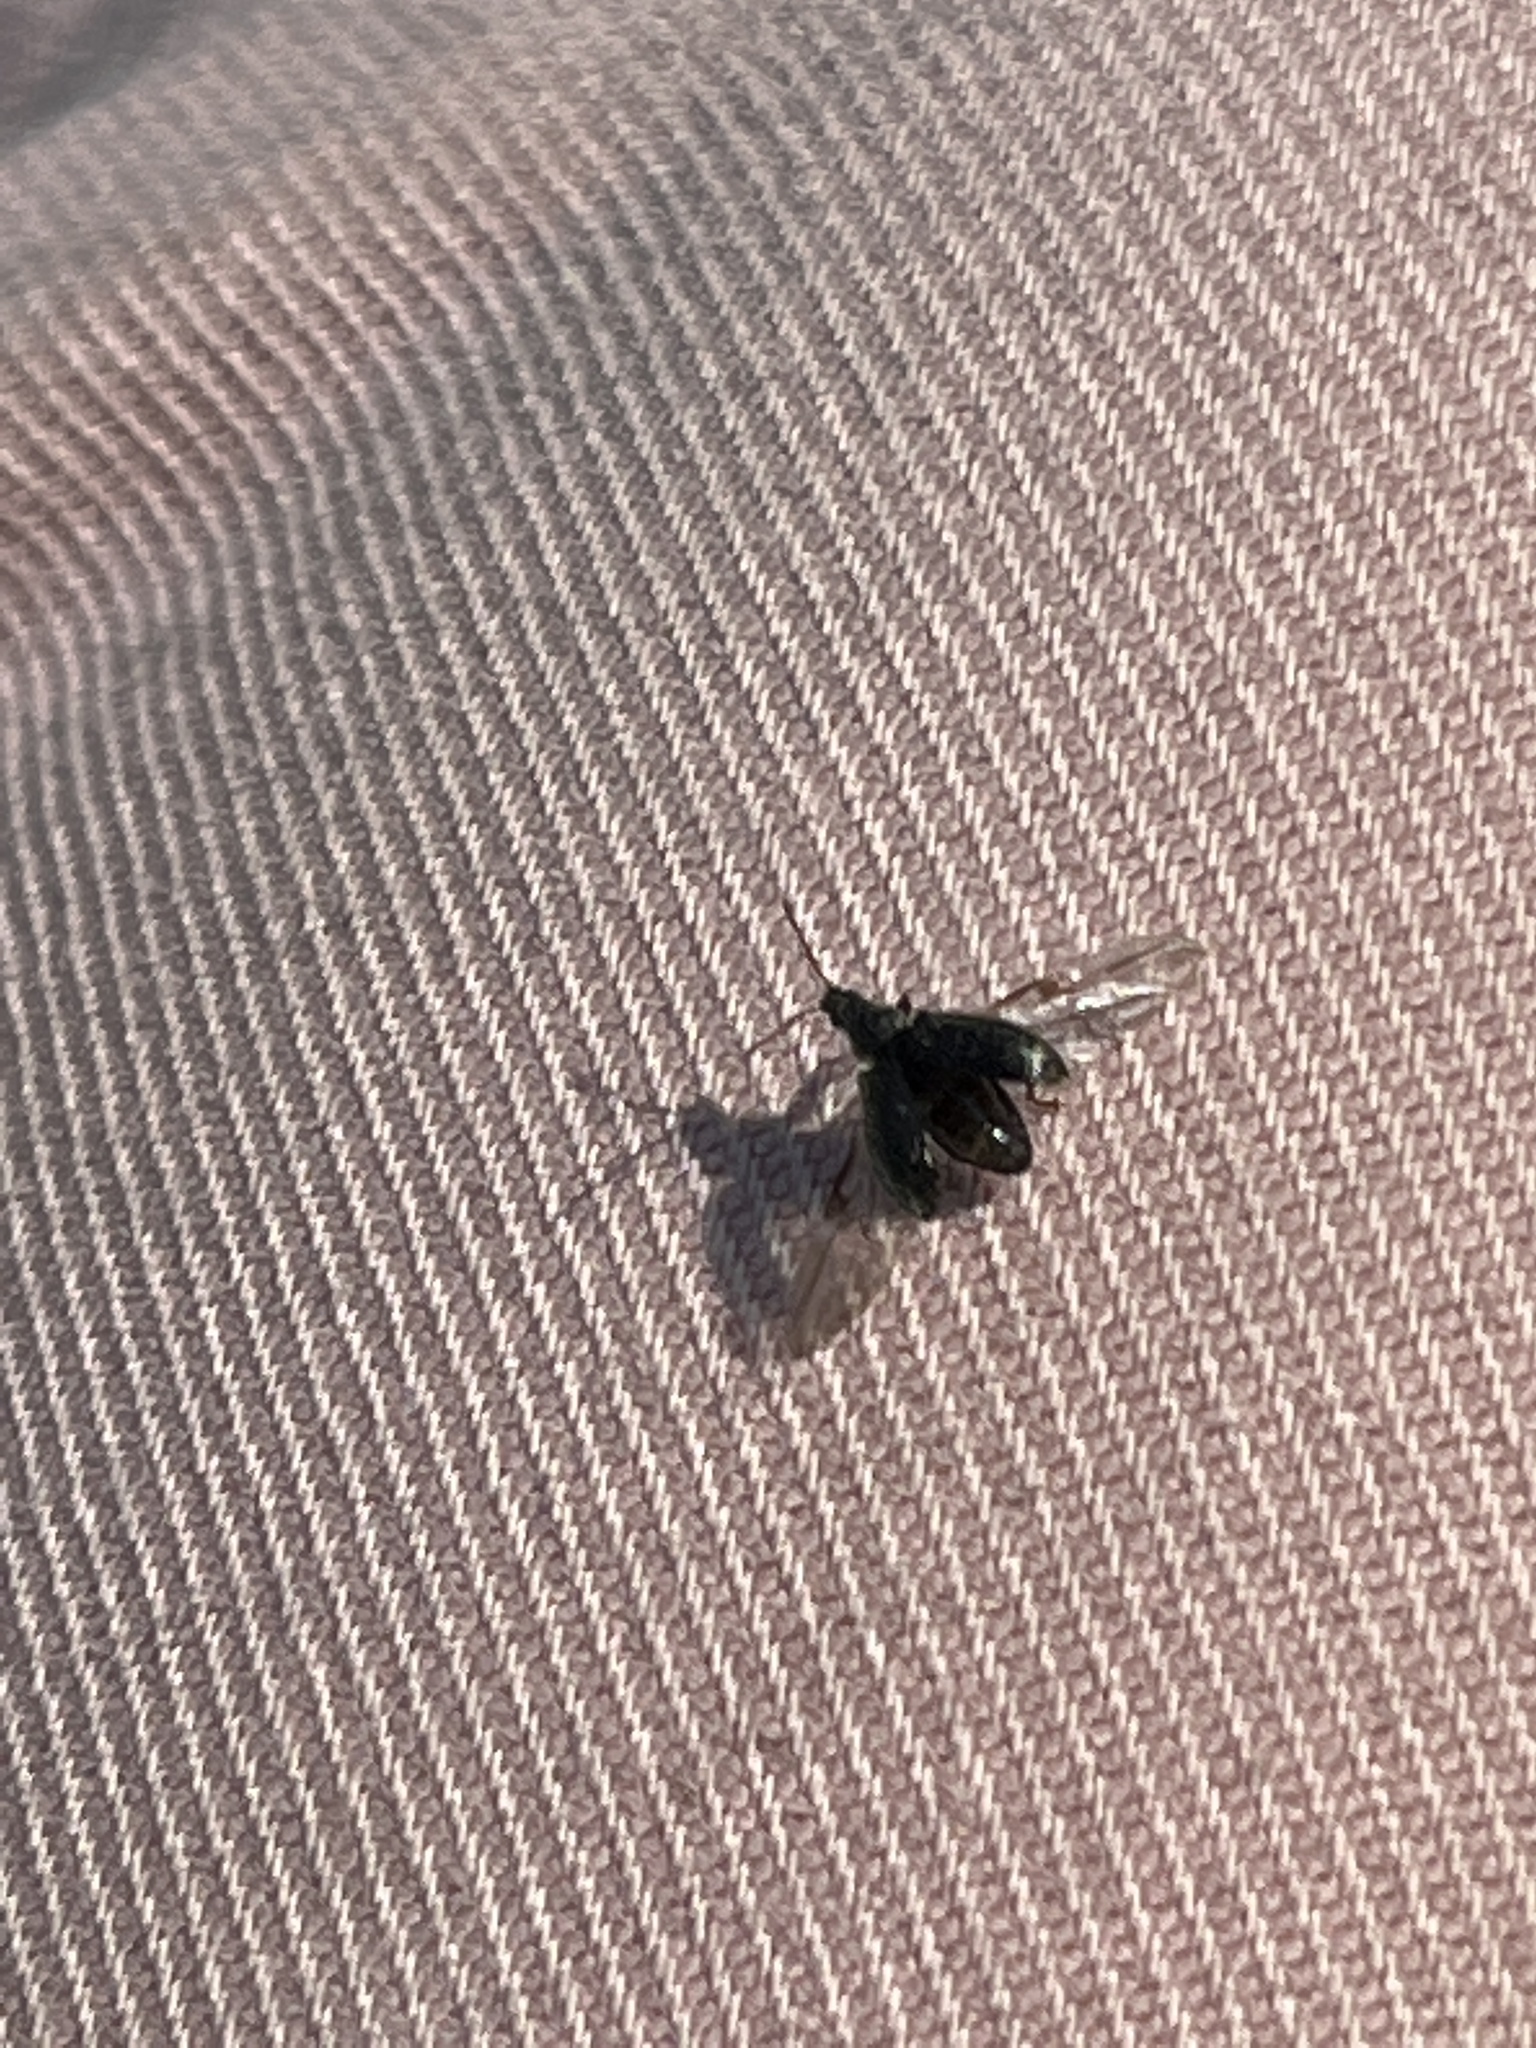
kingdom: Animalia
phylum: Arthropoda
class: Insecta
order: Coleoptera
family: Curculionidae
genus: Phyllobius
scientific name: Phyllobius pyri
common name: Common leaf weevil
